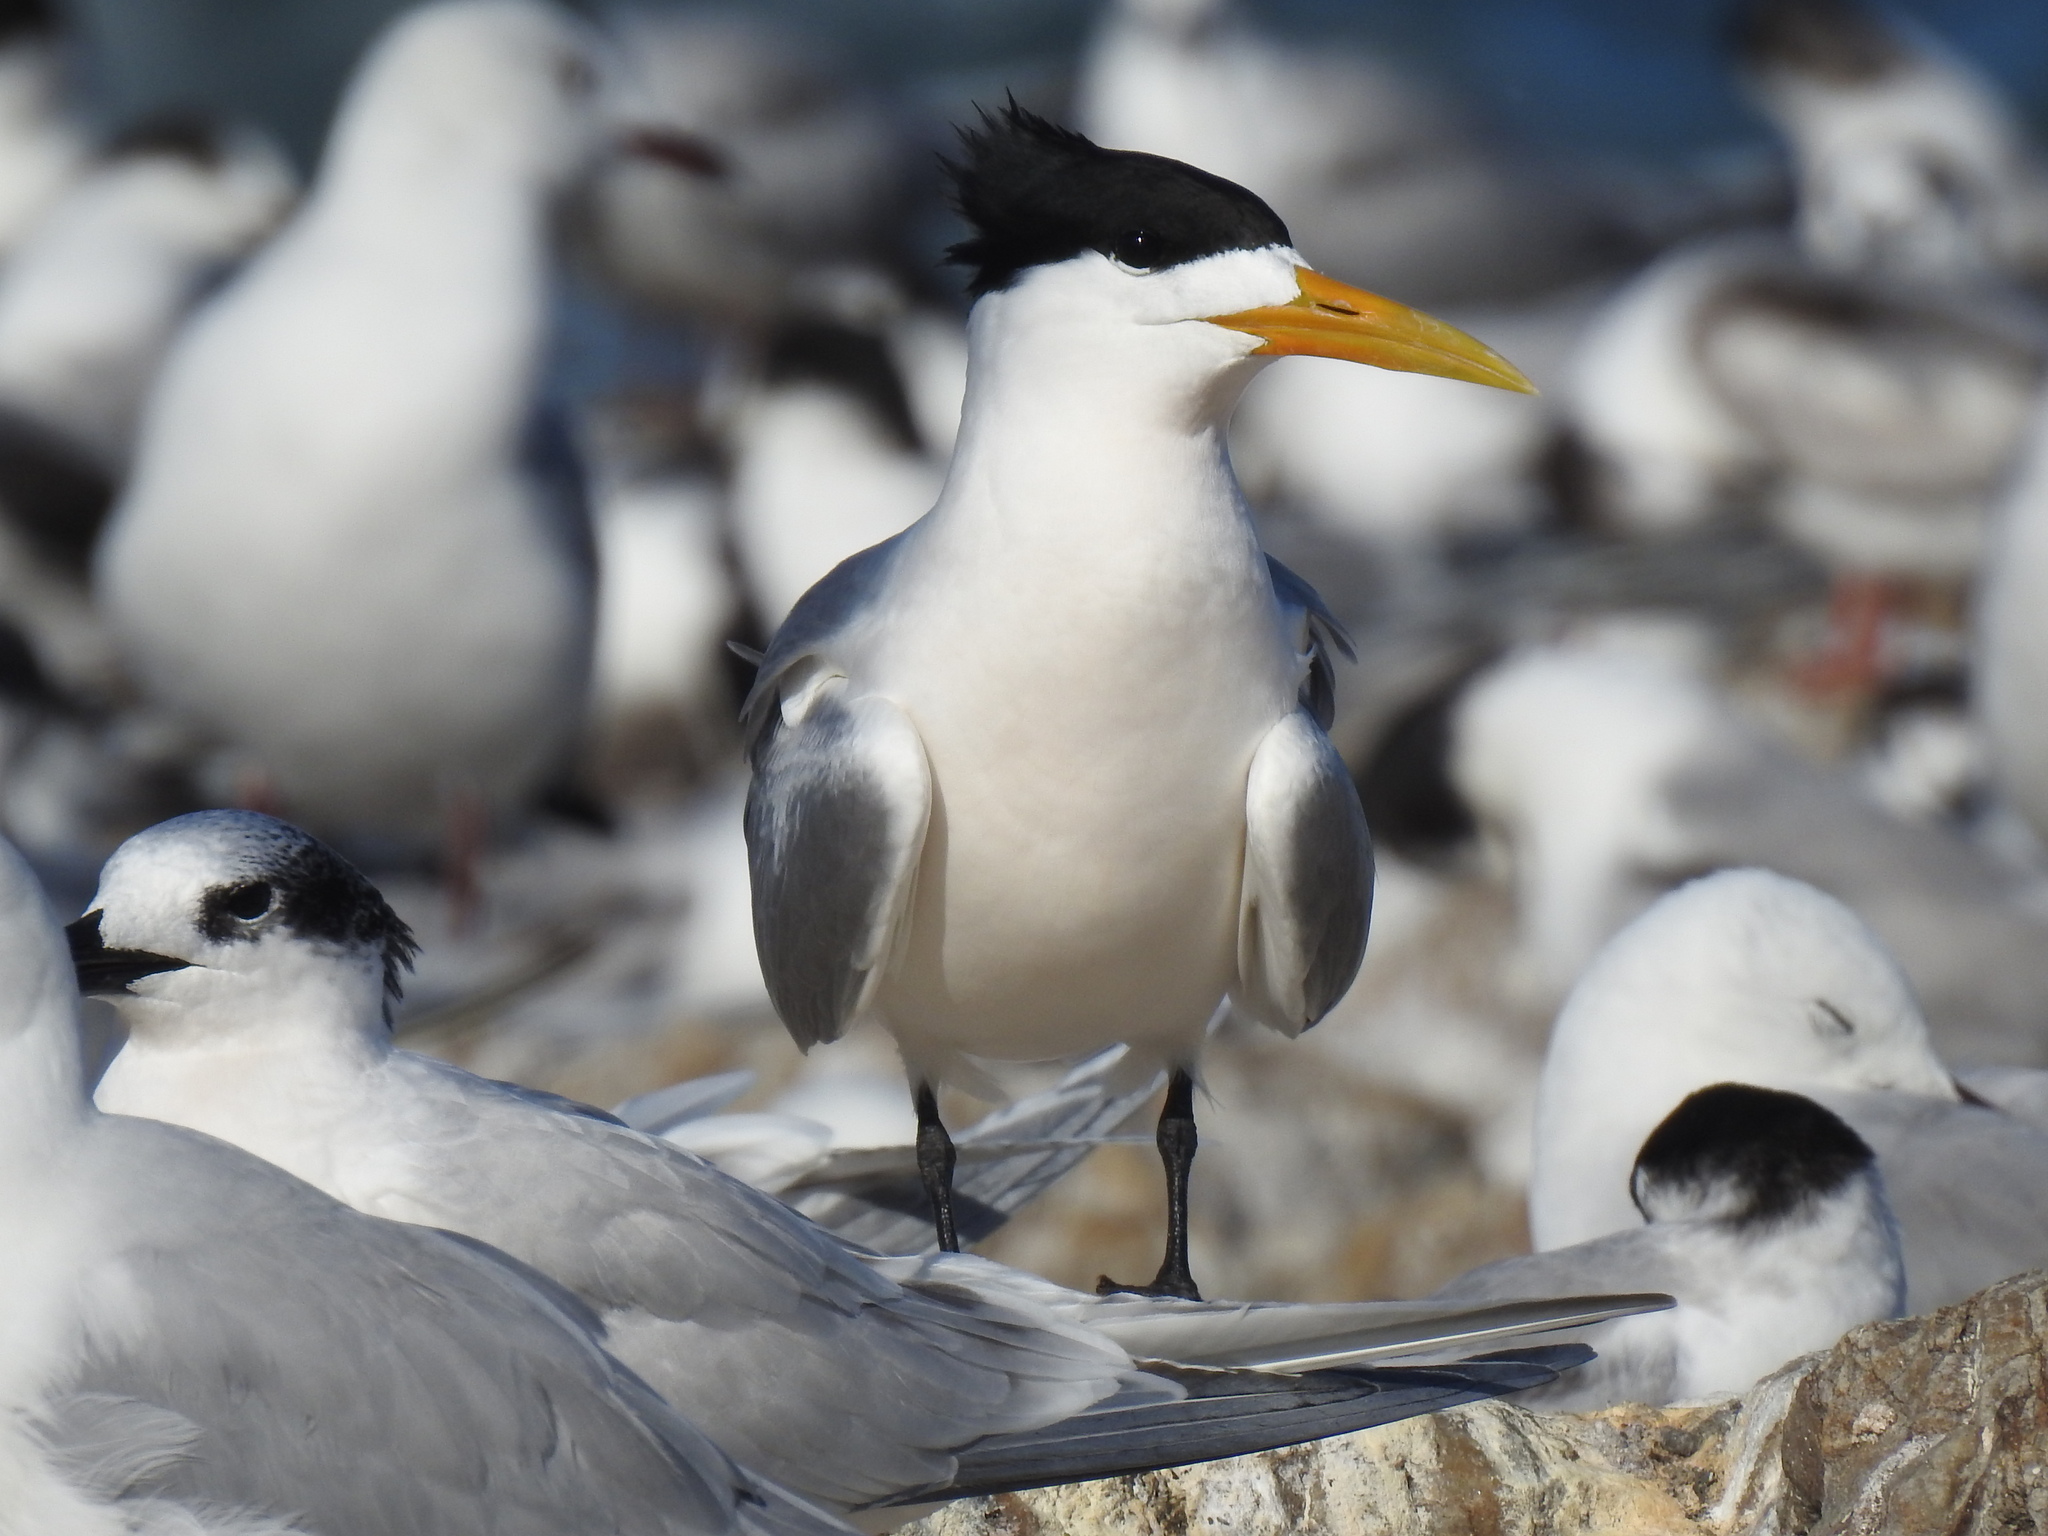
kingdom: Animalia
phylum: Chordata
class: Aves
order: Charadriiformes
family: Laridae
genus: Thalasseus
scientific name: Thalasseus bergii
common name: Greater crested tern
